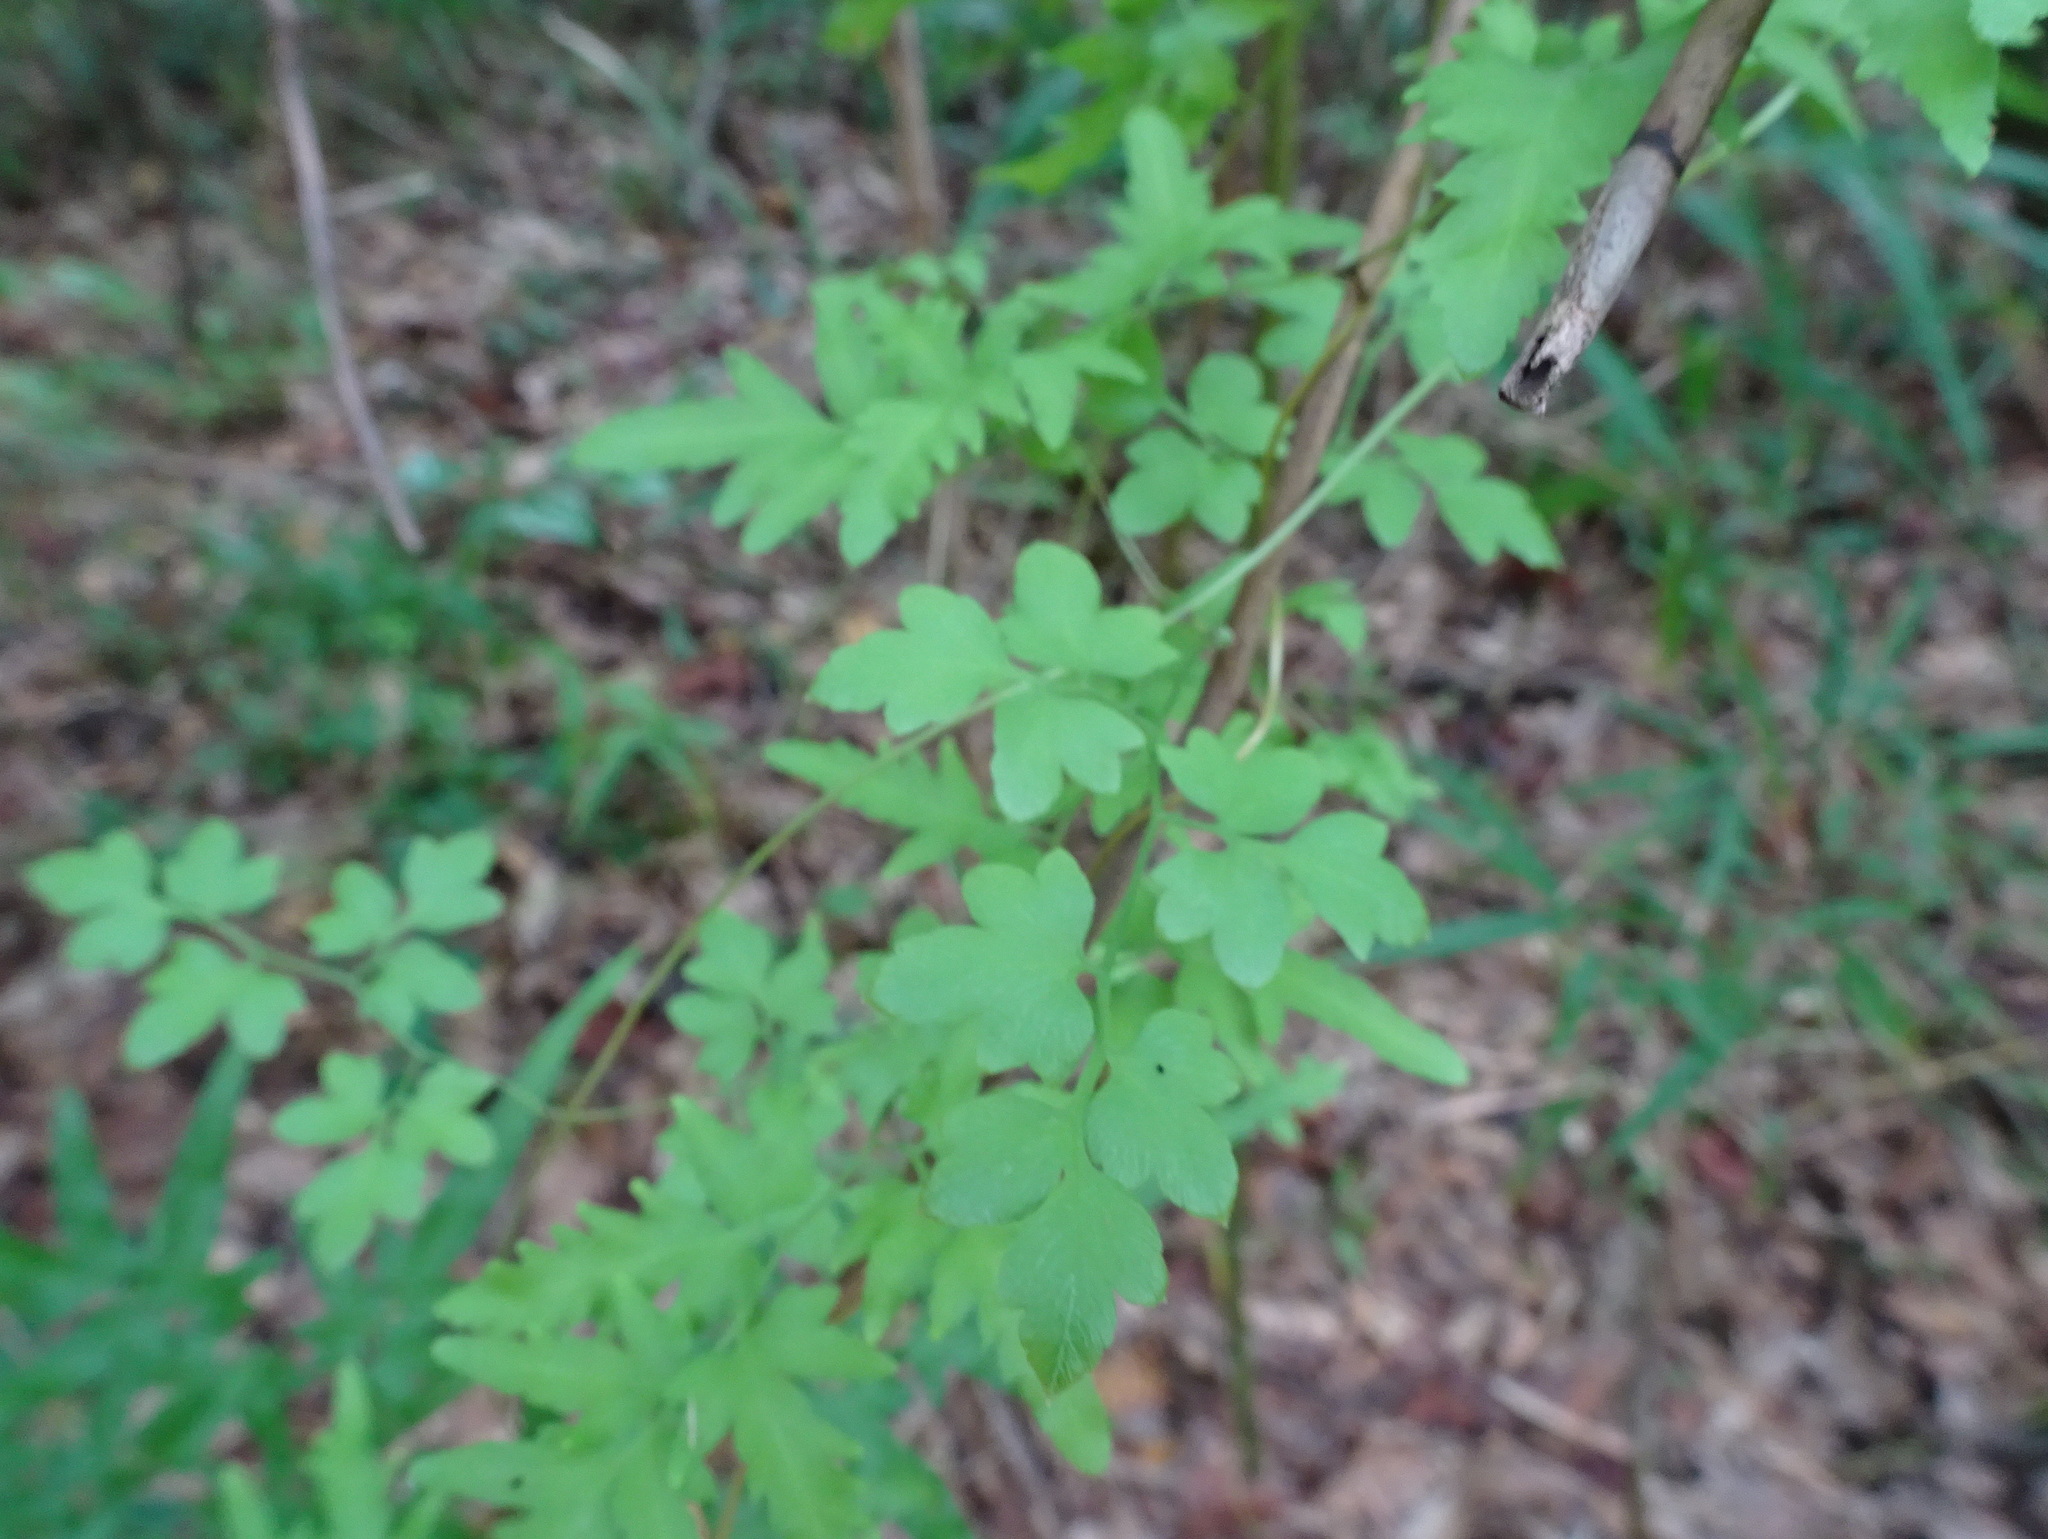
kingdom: Plantae
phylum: Tracheophyta
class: Polypodiopsida
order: Schizaeales
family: Lygodiaceae
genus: Lygodium
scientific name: Lygodium japonicum
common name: Japanese climbing fern
